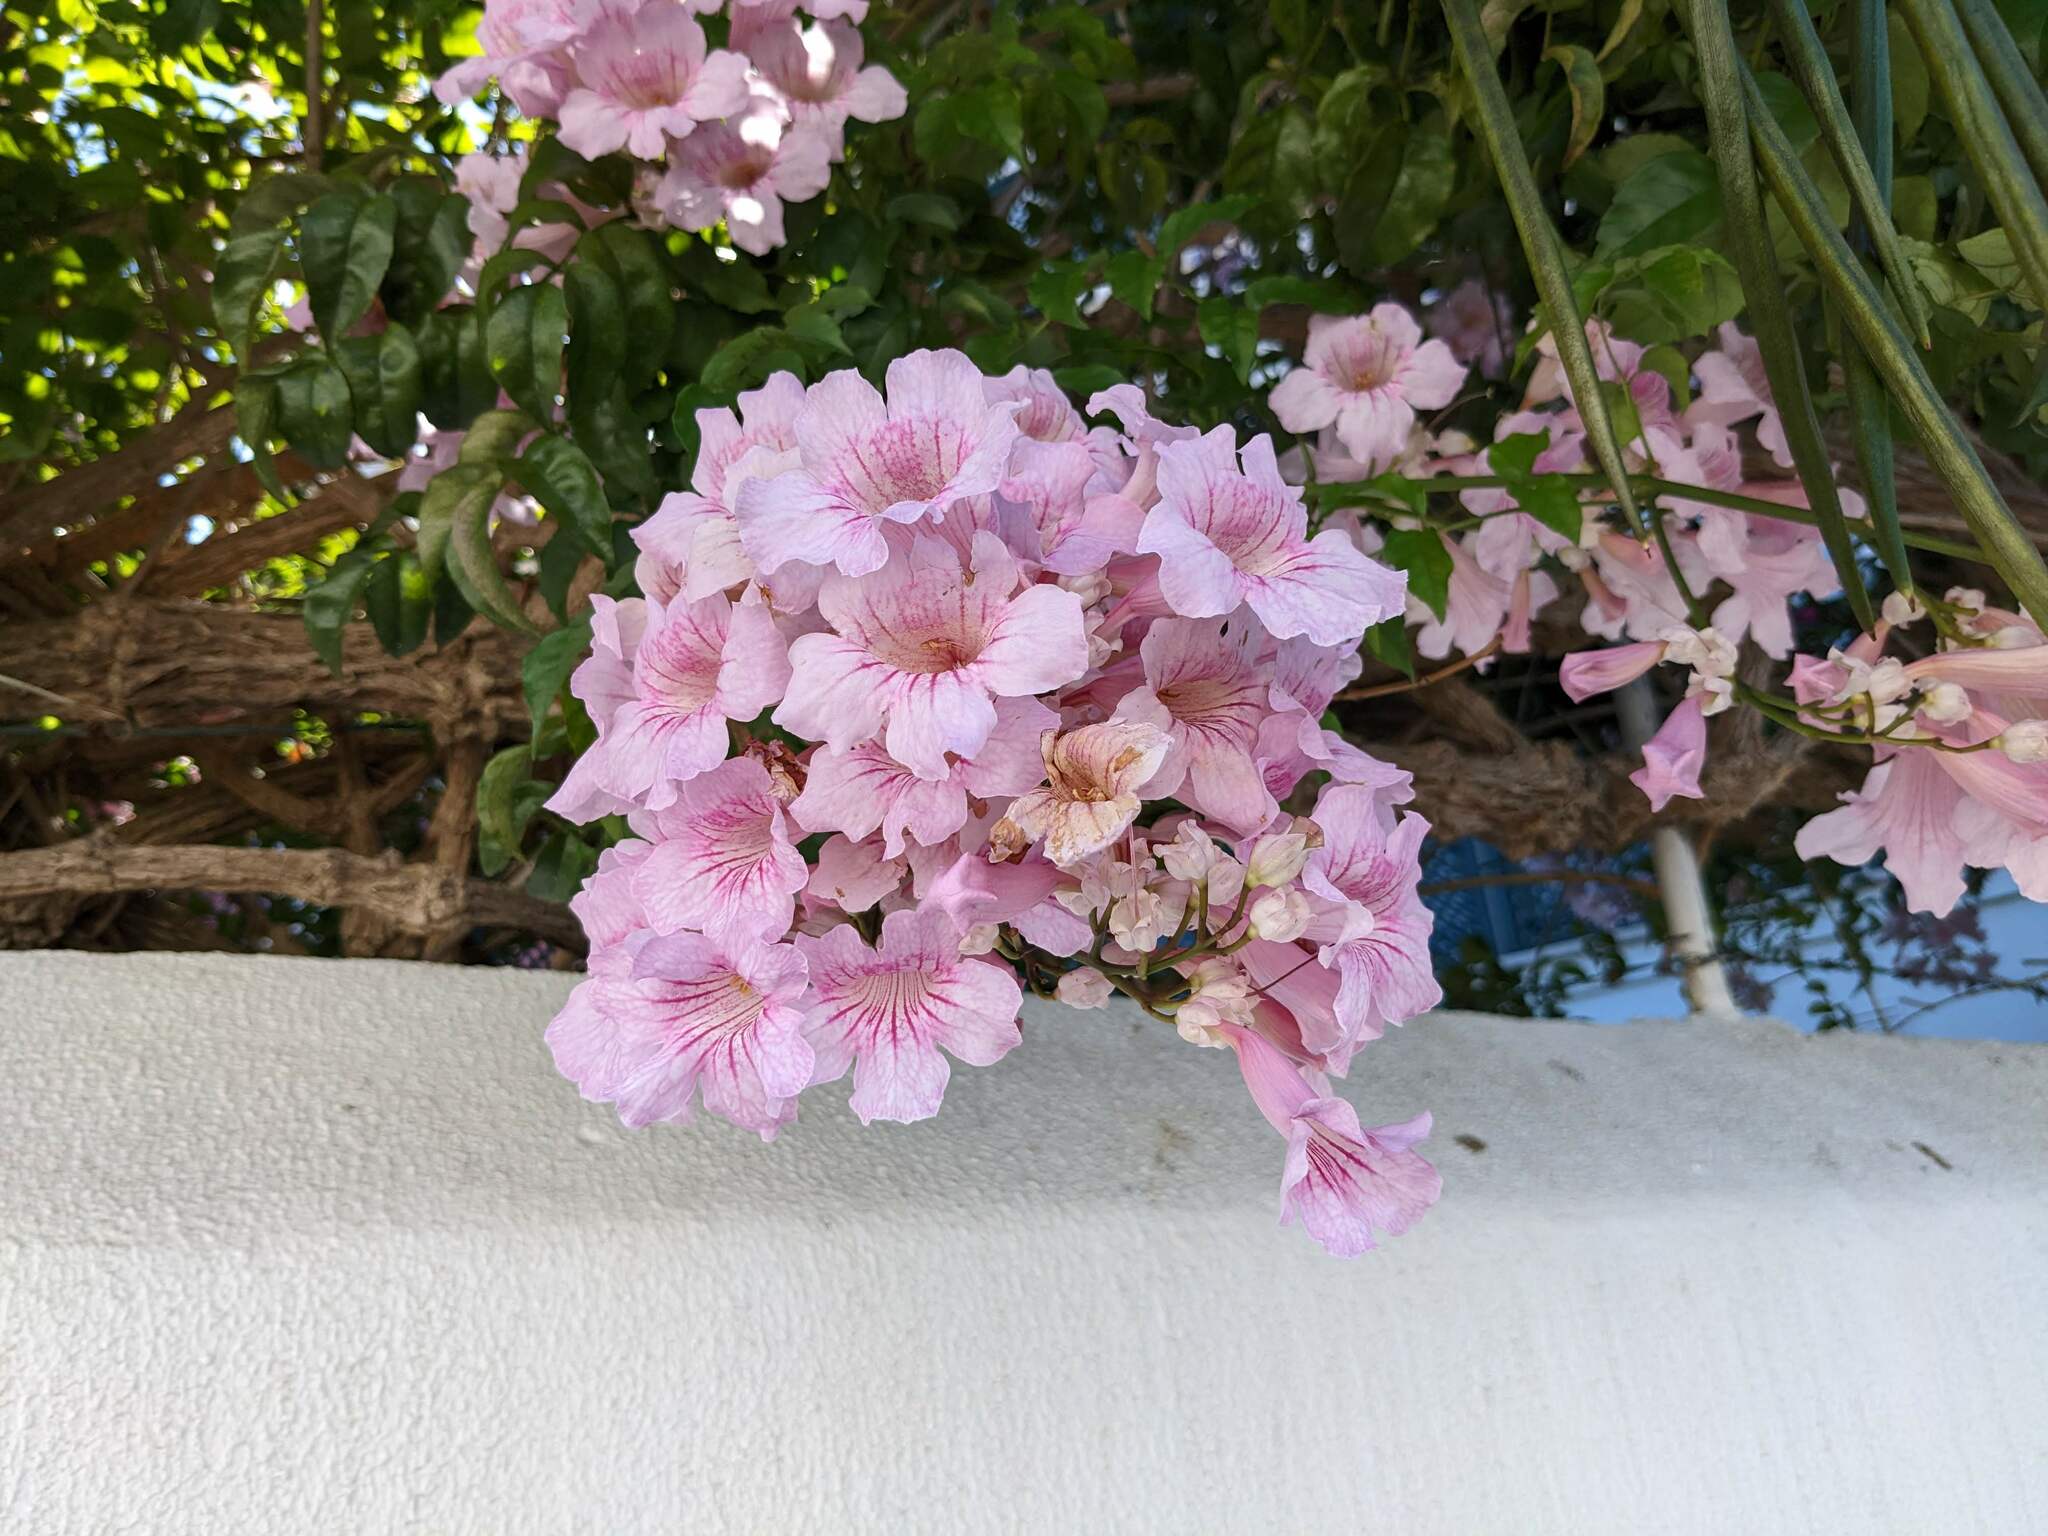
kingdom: Plantae
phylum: Tracheophyta
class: Magnoliopsida
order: Lamiales
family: Bignoniaceae
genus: Podranea
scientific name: Podranea ricasoliana
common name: Zimbabwe creeper
